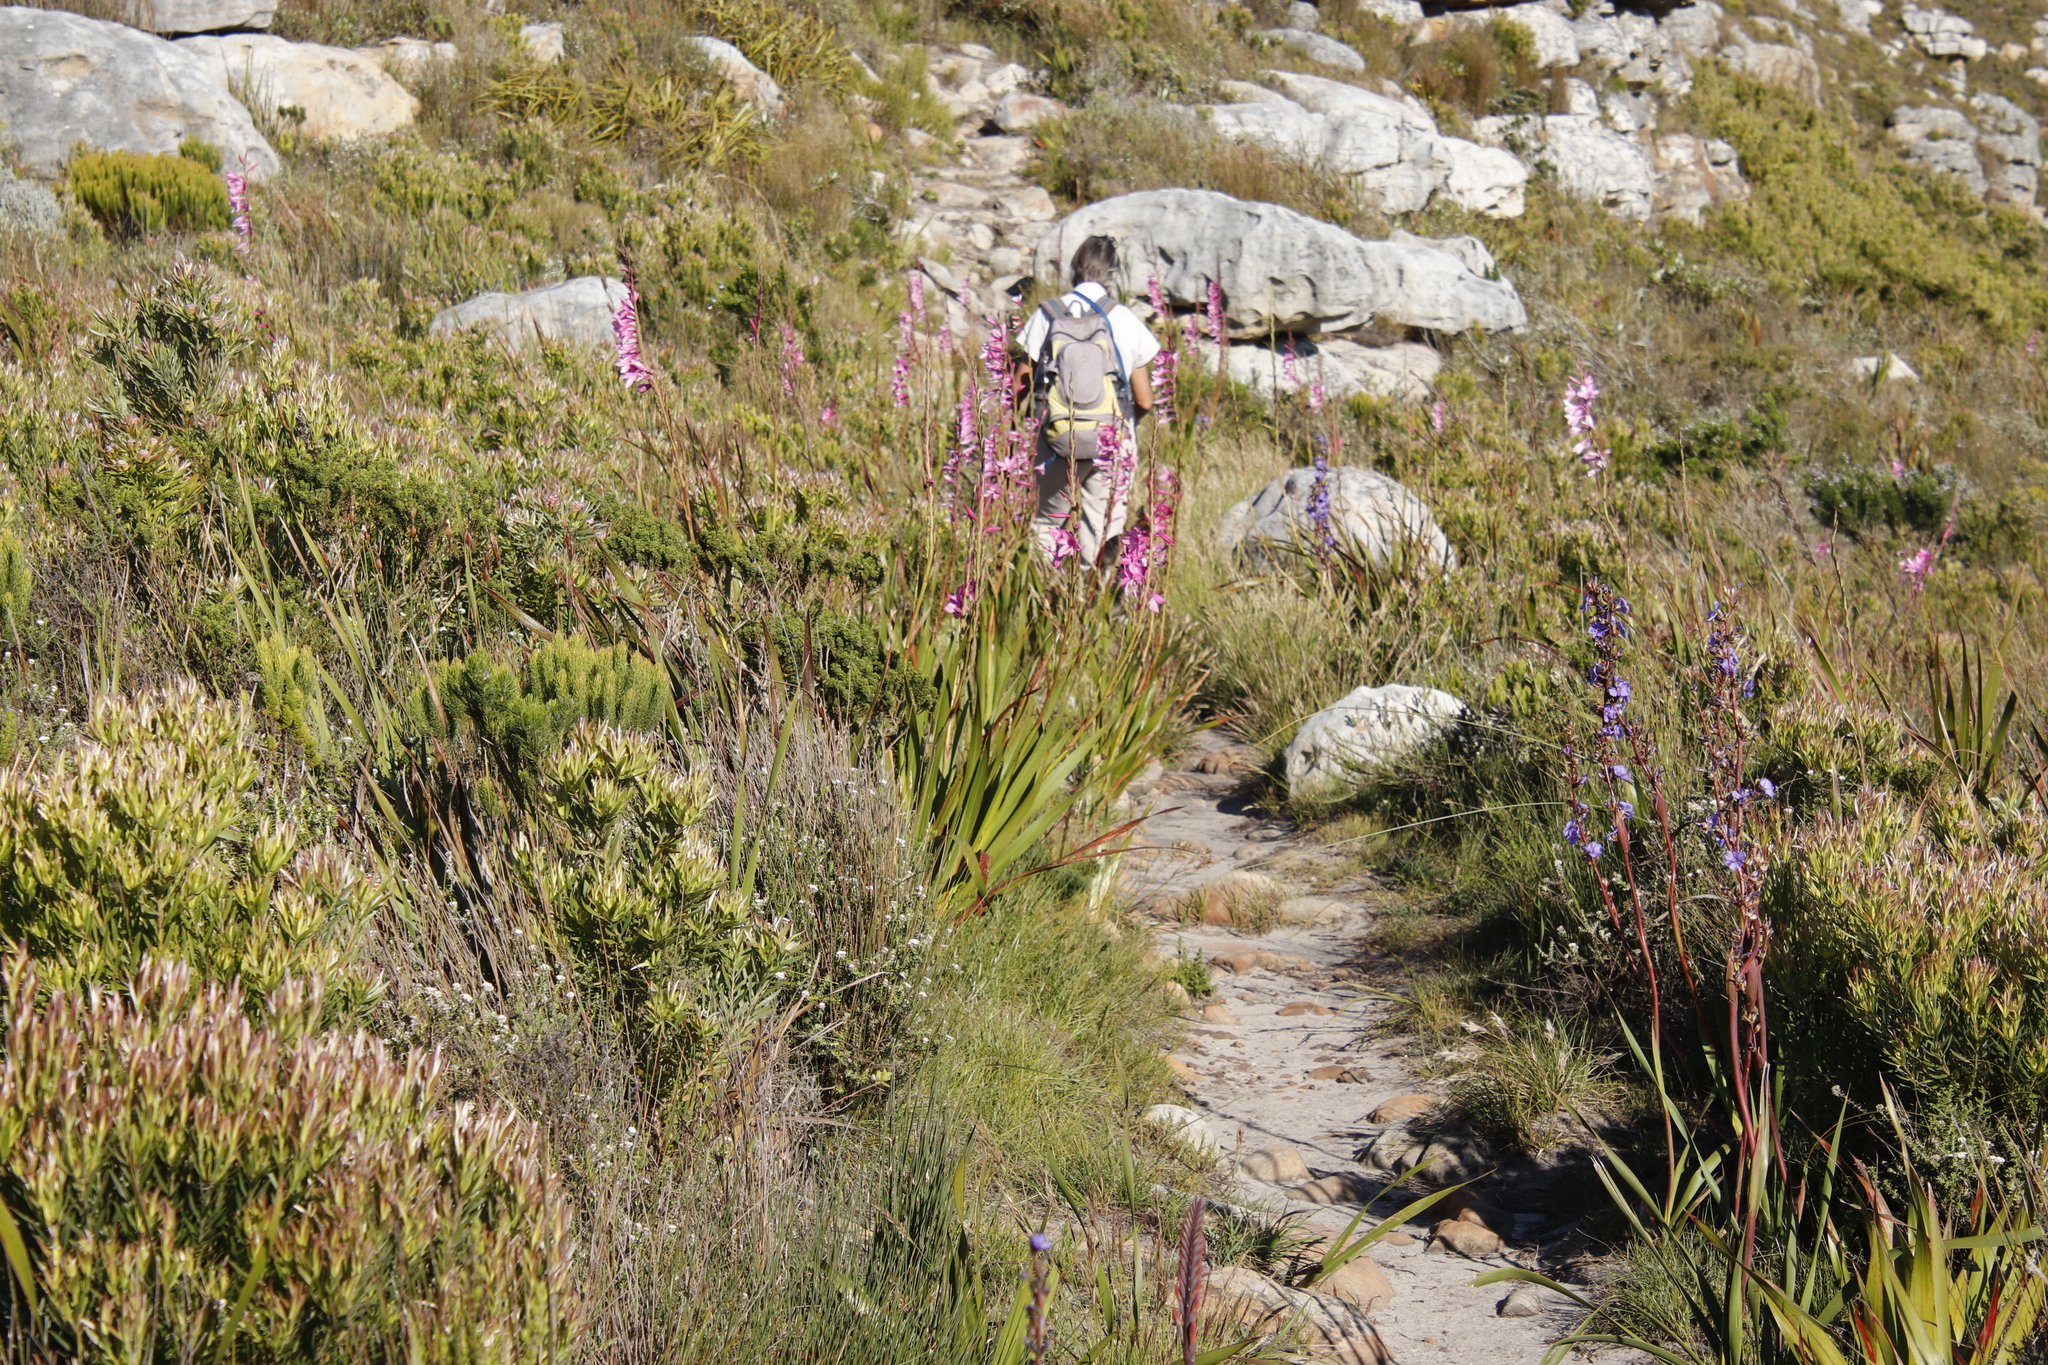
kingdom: Plantae
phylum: Tracheophyta
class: Liliopsida
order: Asparagales
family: Iridaceae
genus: Watsonia
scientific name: Watsonia borbonica
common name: Bugle-lily
